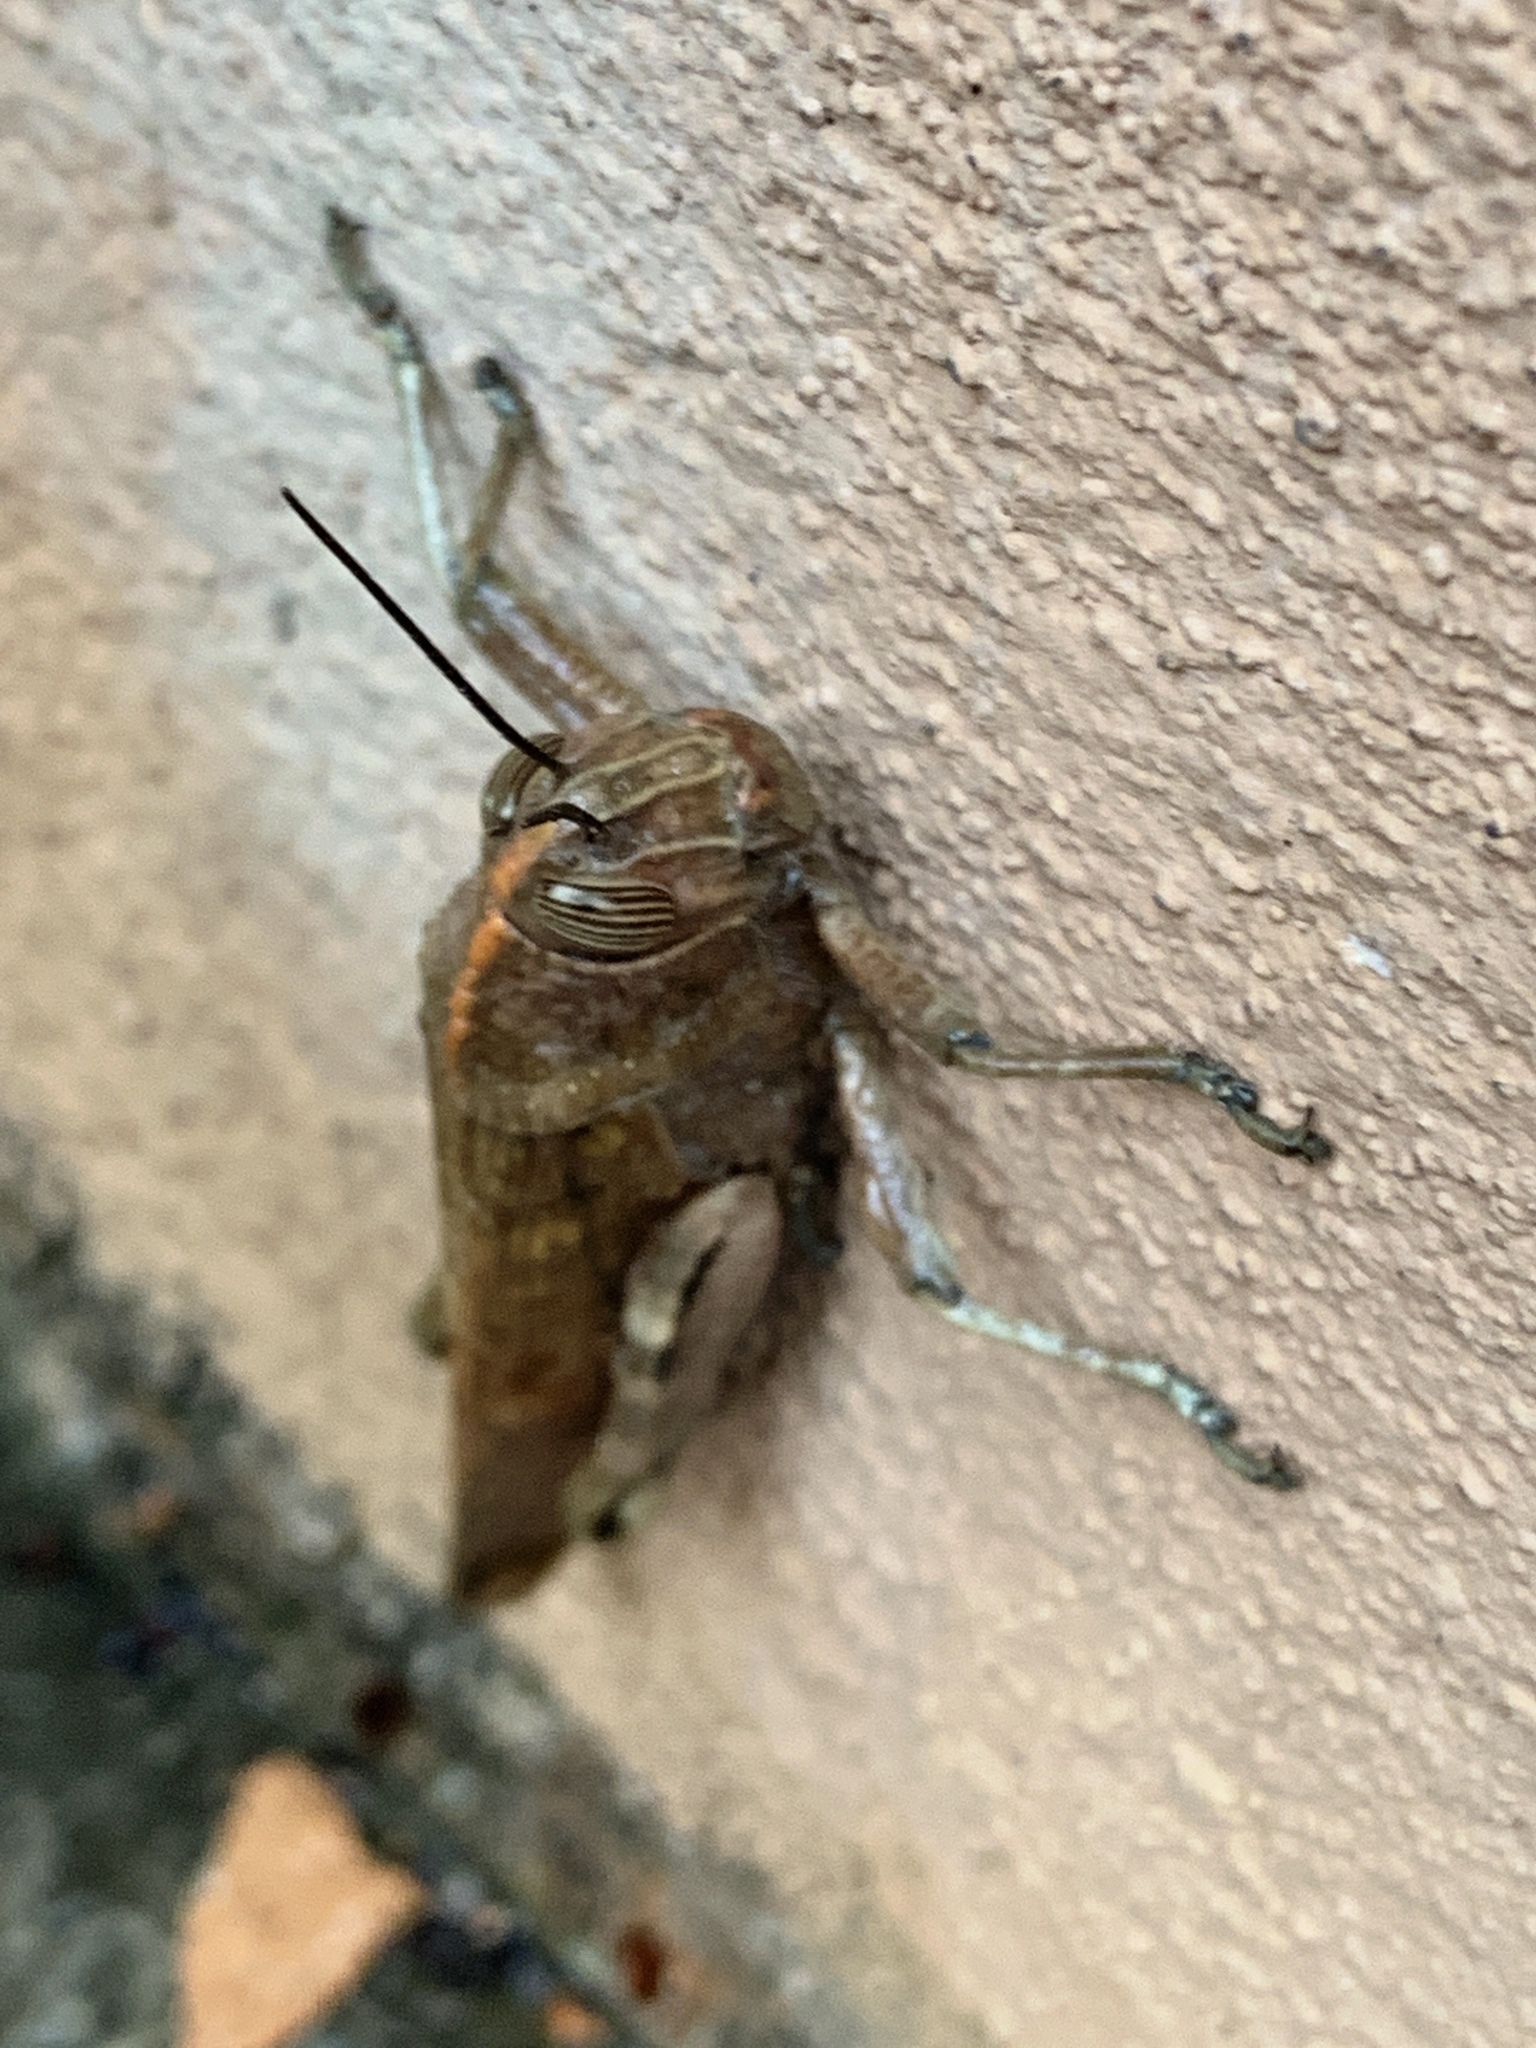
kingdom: Animalia
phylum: Arthropoda
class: Insecta
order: Orthoptera
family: Acrididae
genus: Anacridium
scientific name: Anacridium aegyptium
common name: Egyptian grasshopper
